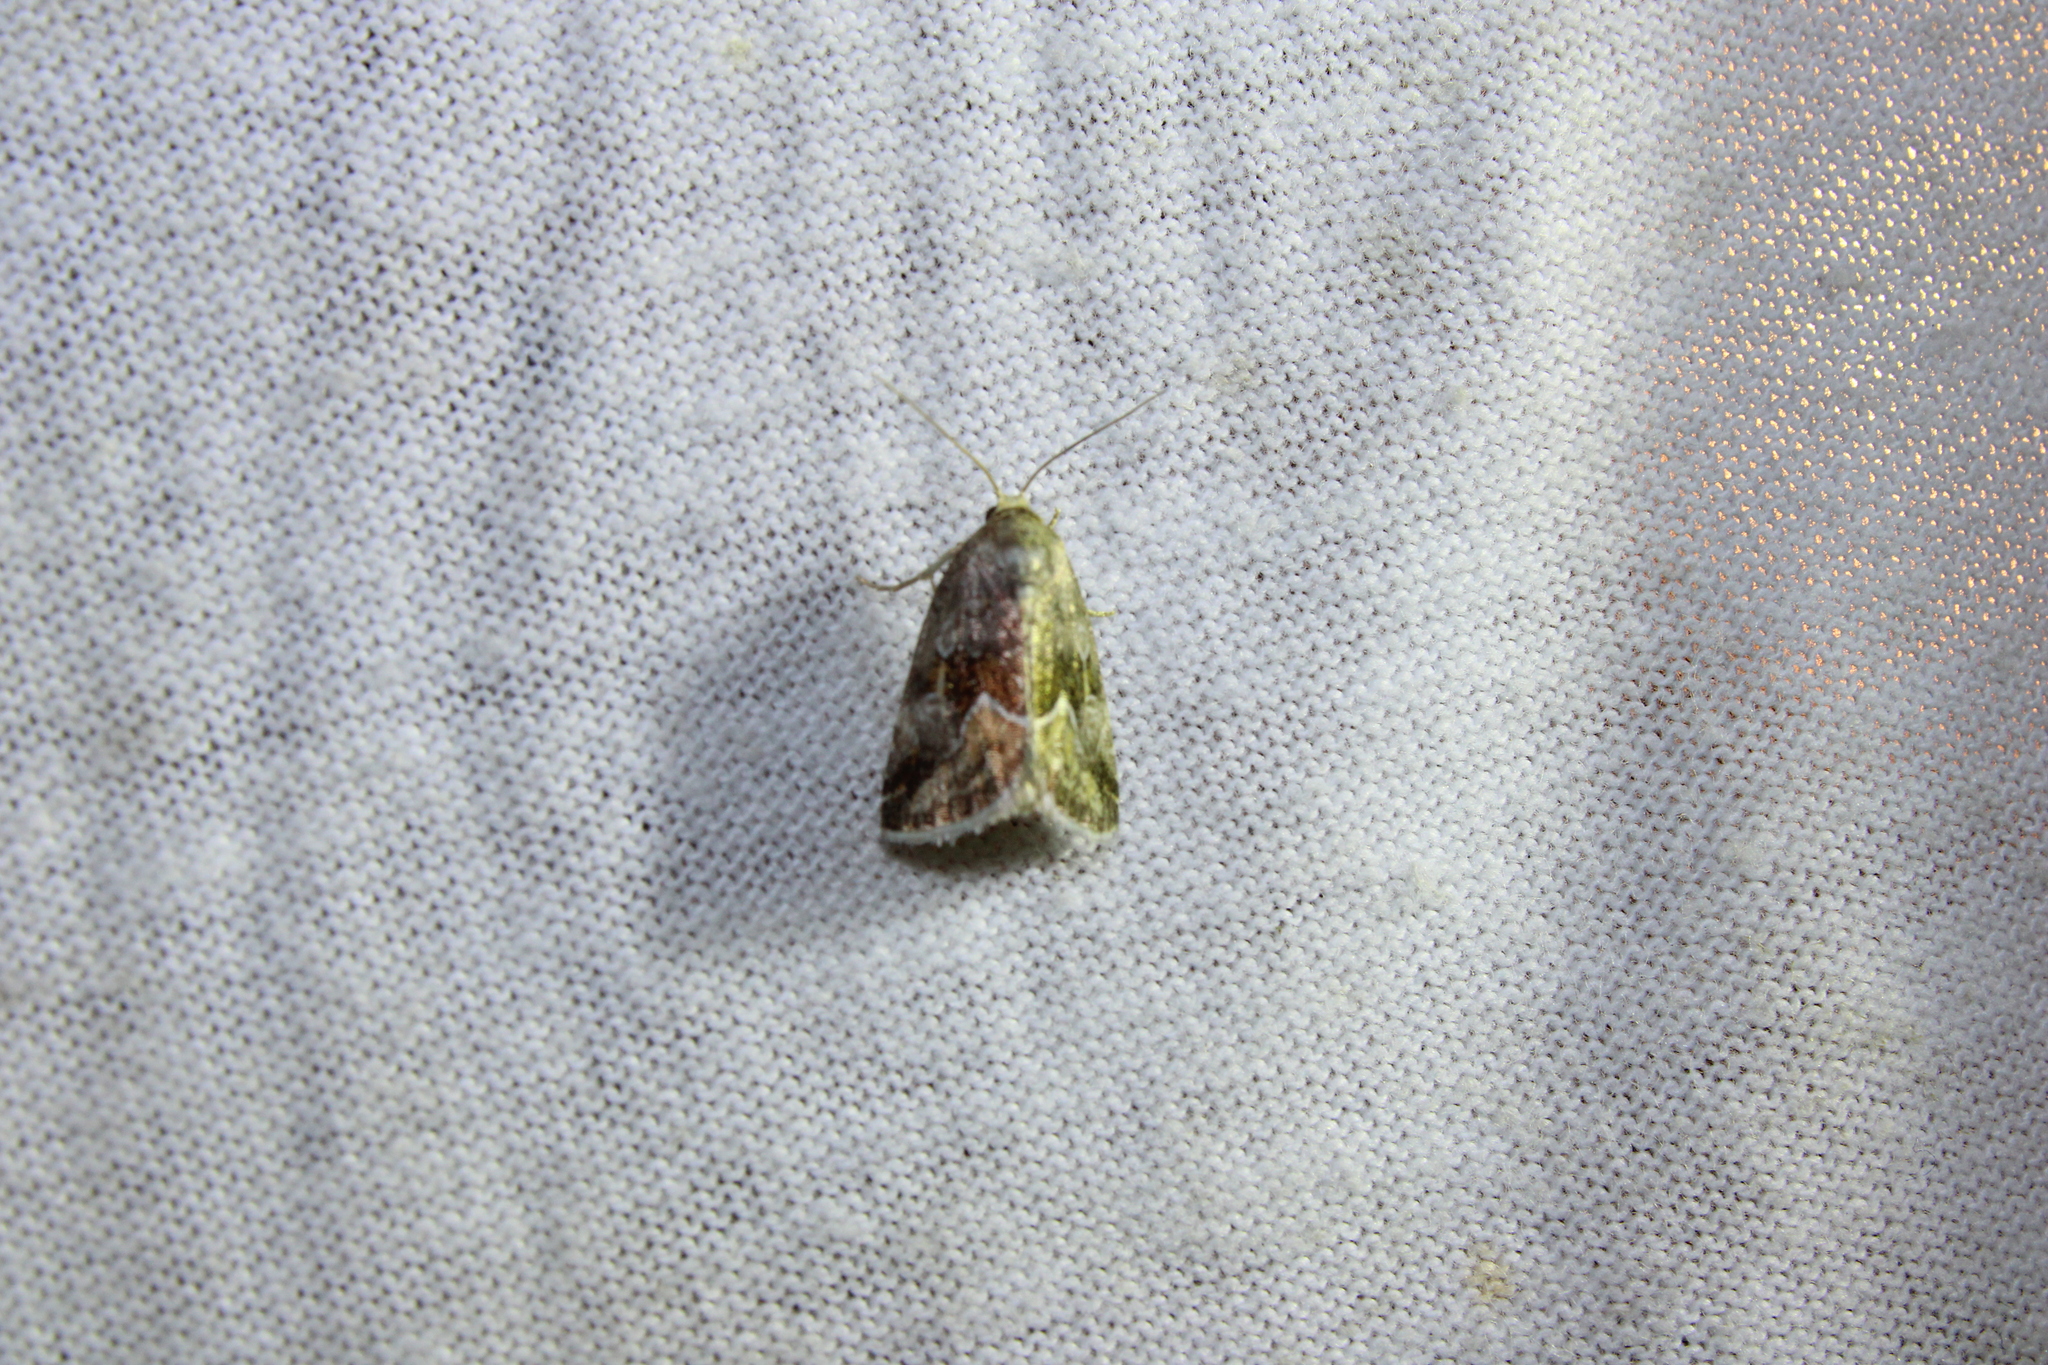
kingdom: Animalia
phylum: Arthropoda
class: Insecta
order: Lepidoptera
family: Noctuidae
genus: Deltote
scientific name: Deltote bellicula
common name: Bog glyph
